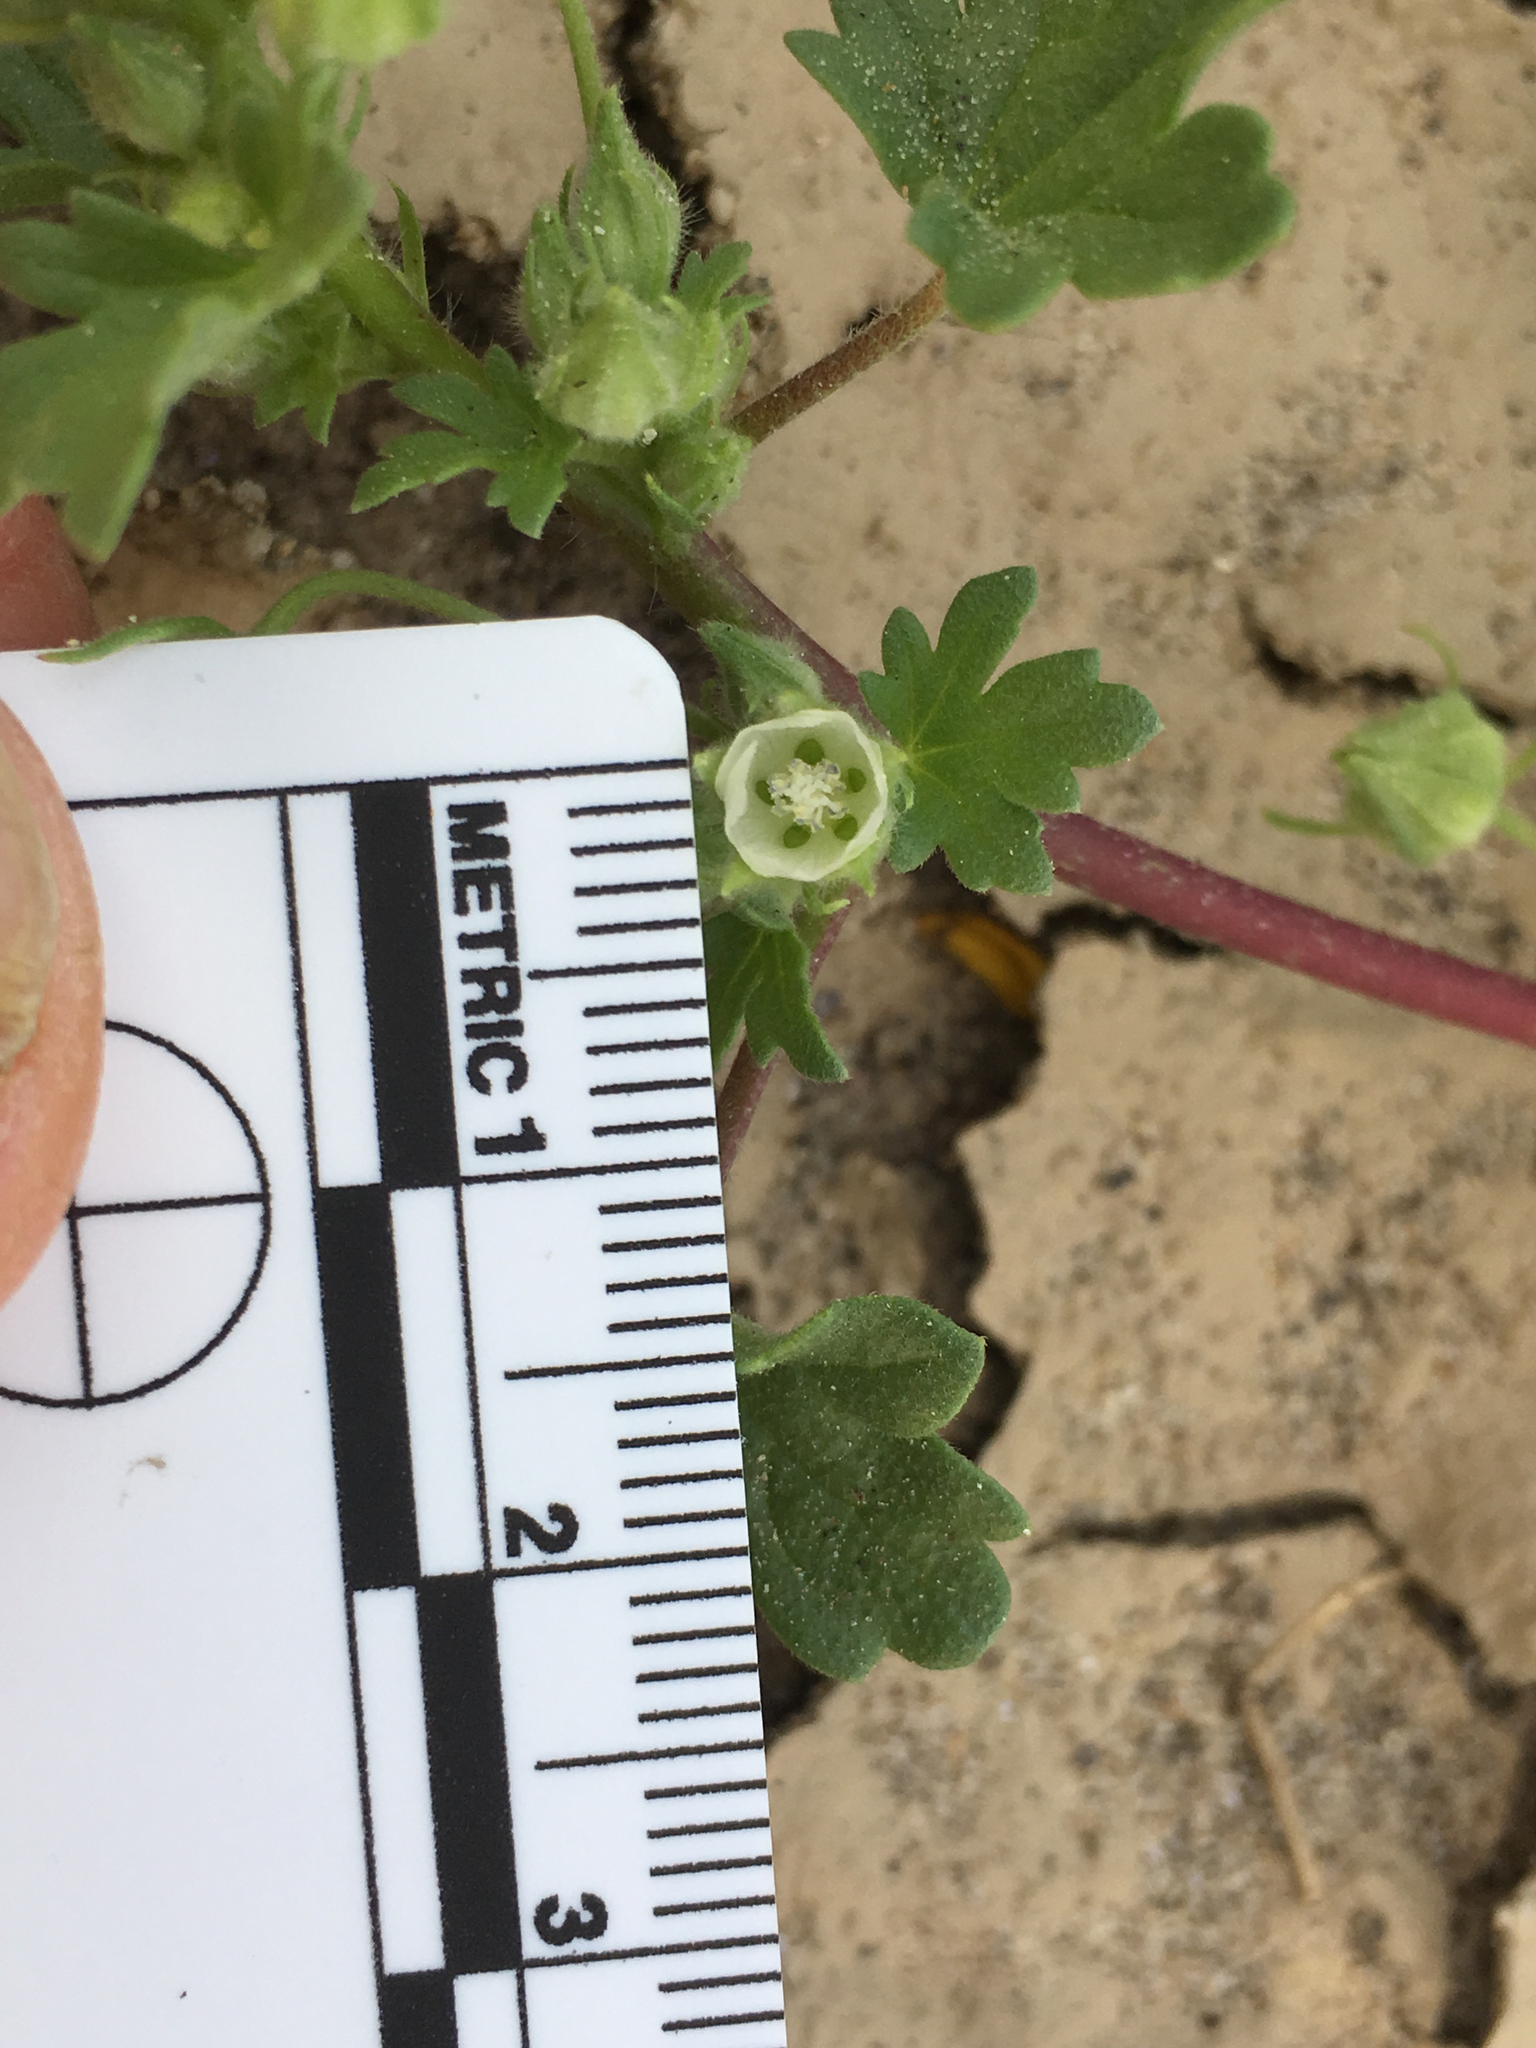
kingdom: Plantae
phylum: Tracheophyta
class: Magnoliopsida
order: Malvales
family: Malvaceae
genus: Eremalche
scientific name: Eremalche exilis
